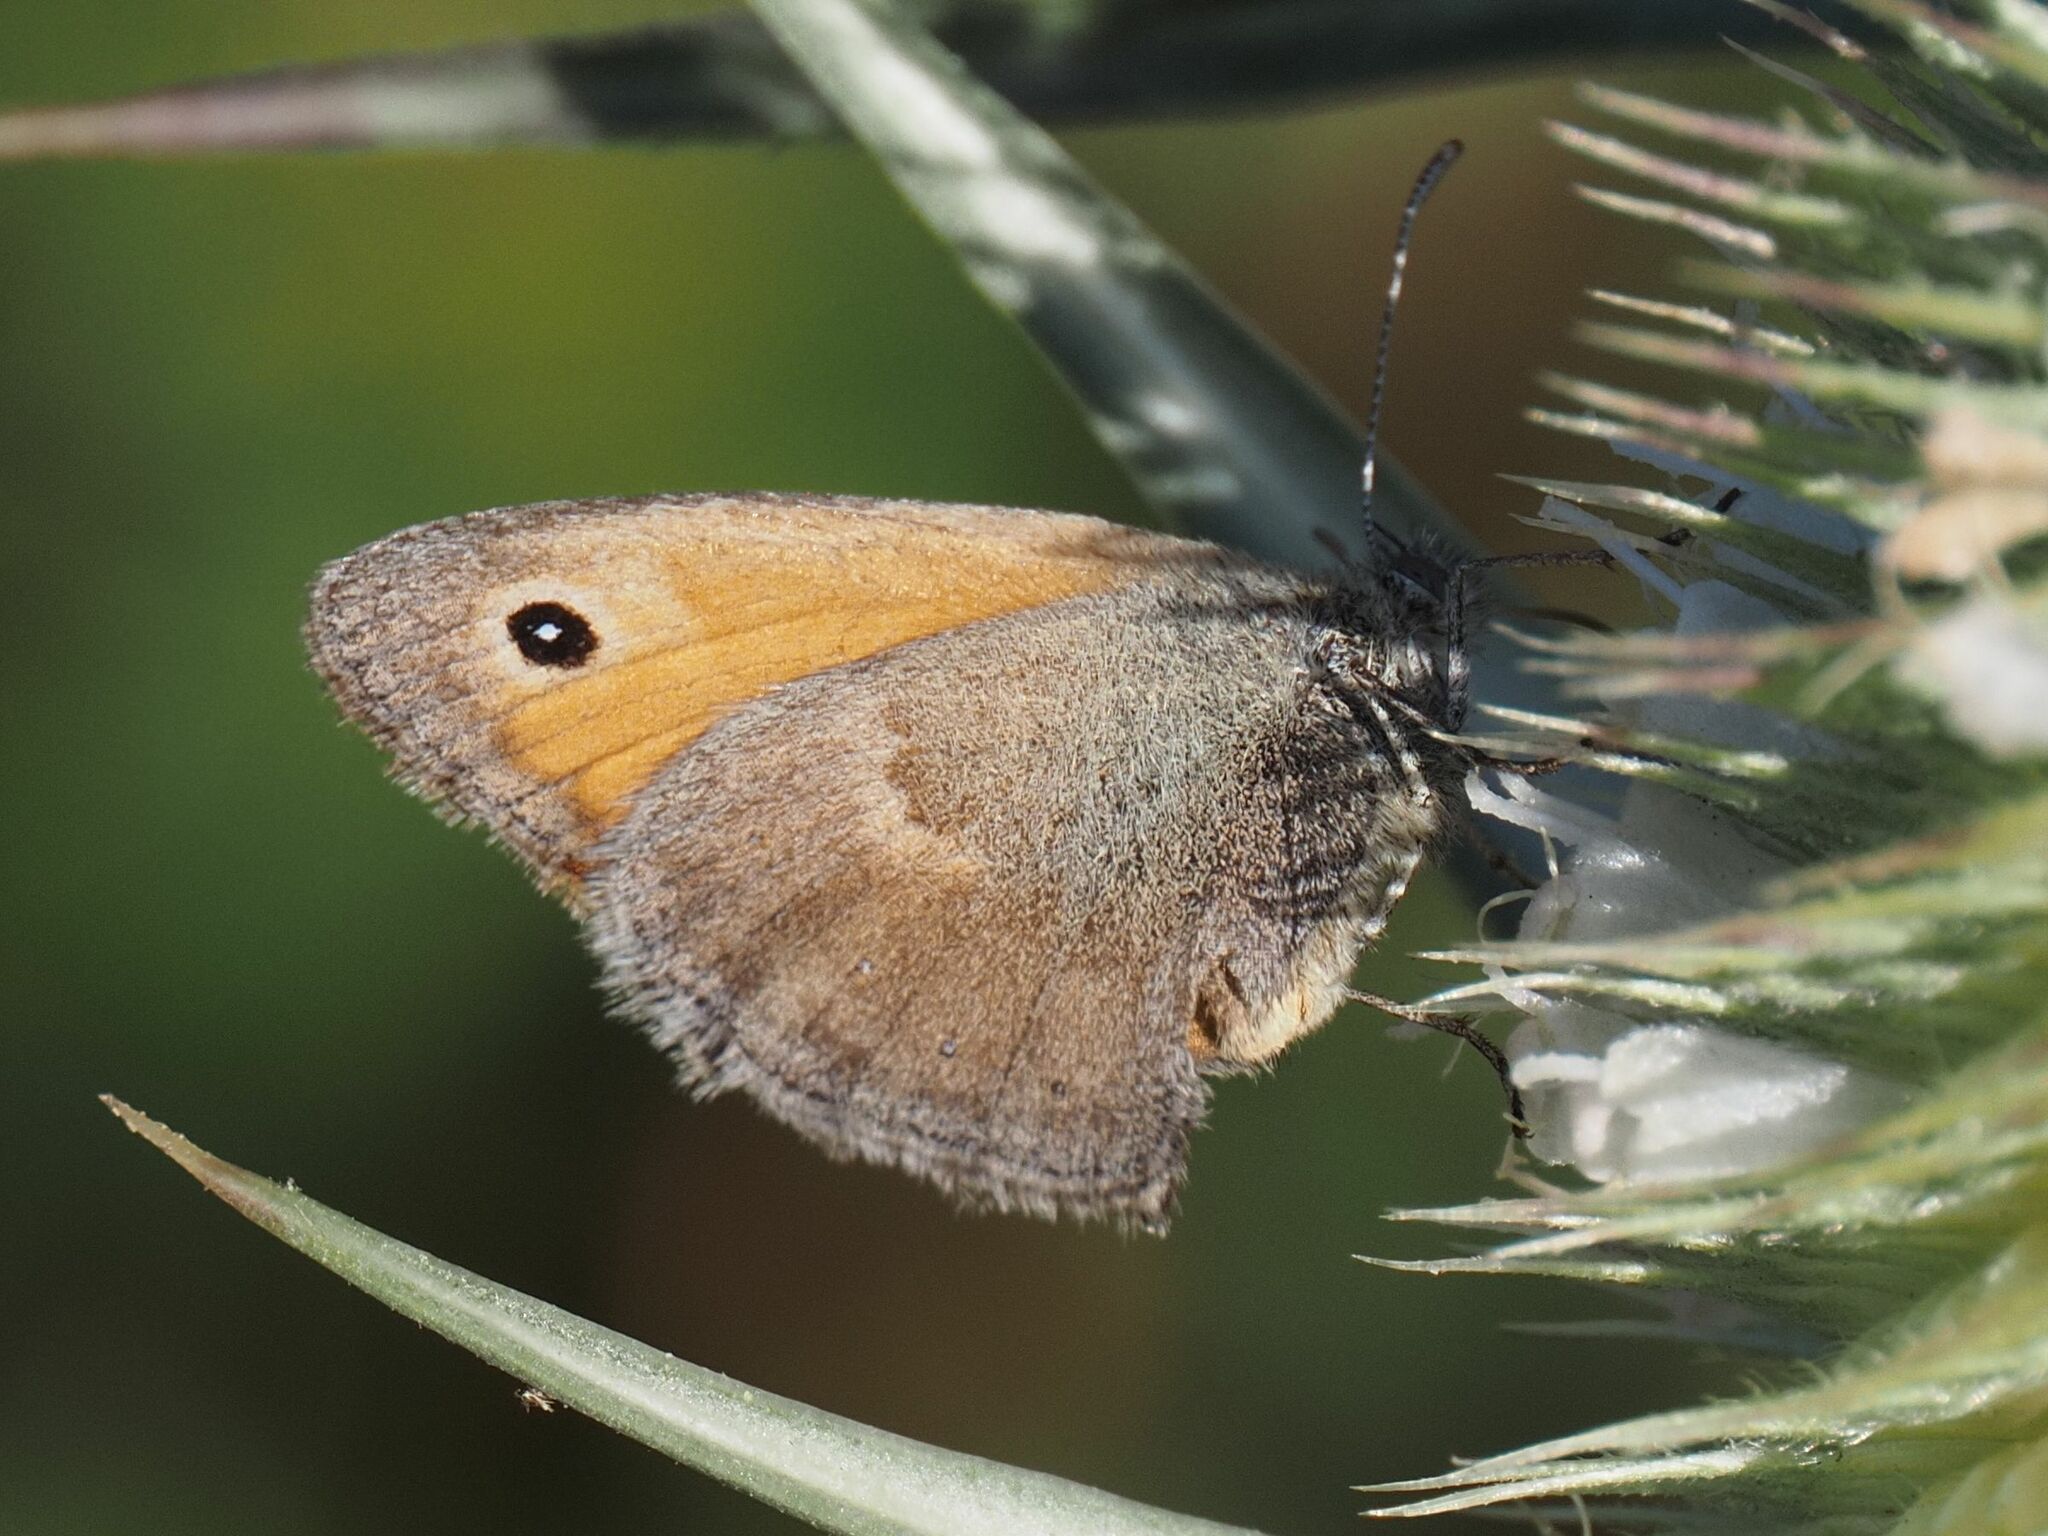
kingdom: Animalia
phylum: Arthropoda
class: Insecta
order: Lepidoptera
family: Nymphalidae
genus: Coenonympha
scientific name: Coenonympha pamphilus
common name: Small heath
